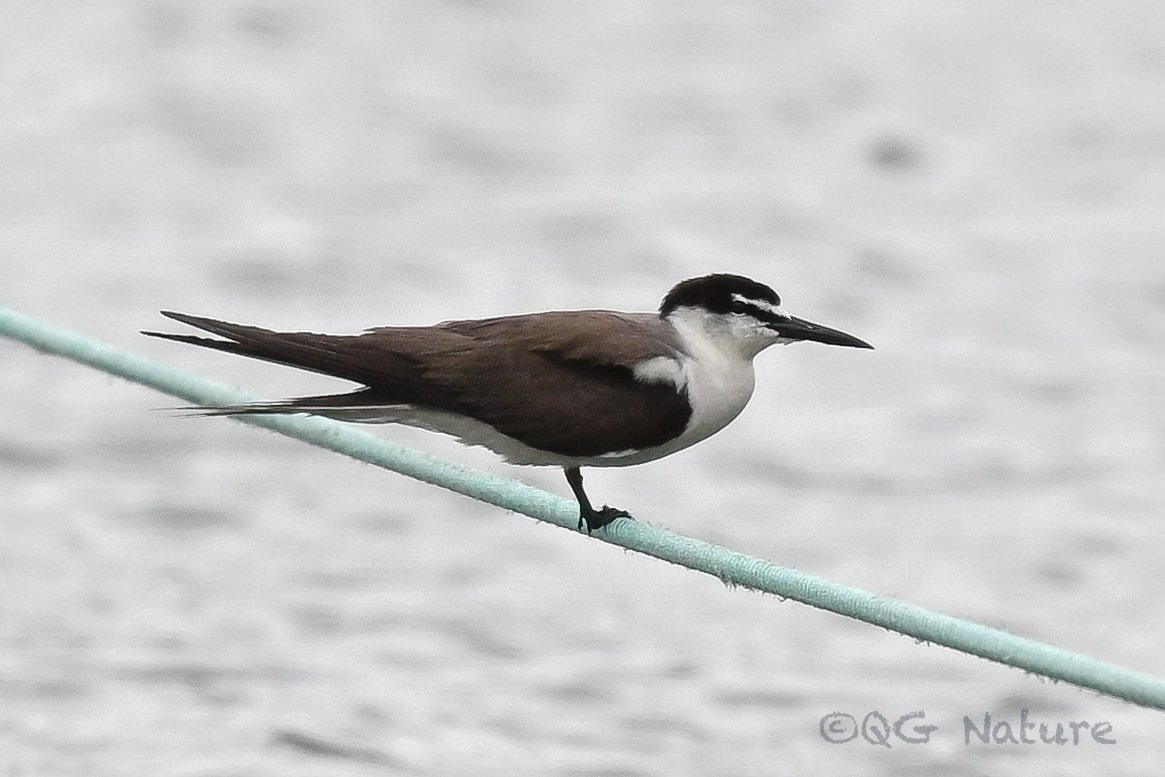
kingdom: Animalia
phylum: Chordata
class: Aves
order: Charadriiformes
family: Laridae
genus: Onychoprion
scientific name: Onychoprion anaethetus
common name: Bridled tern
